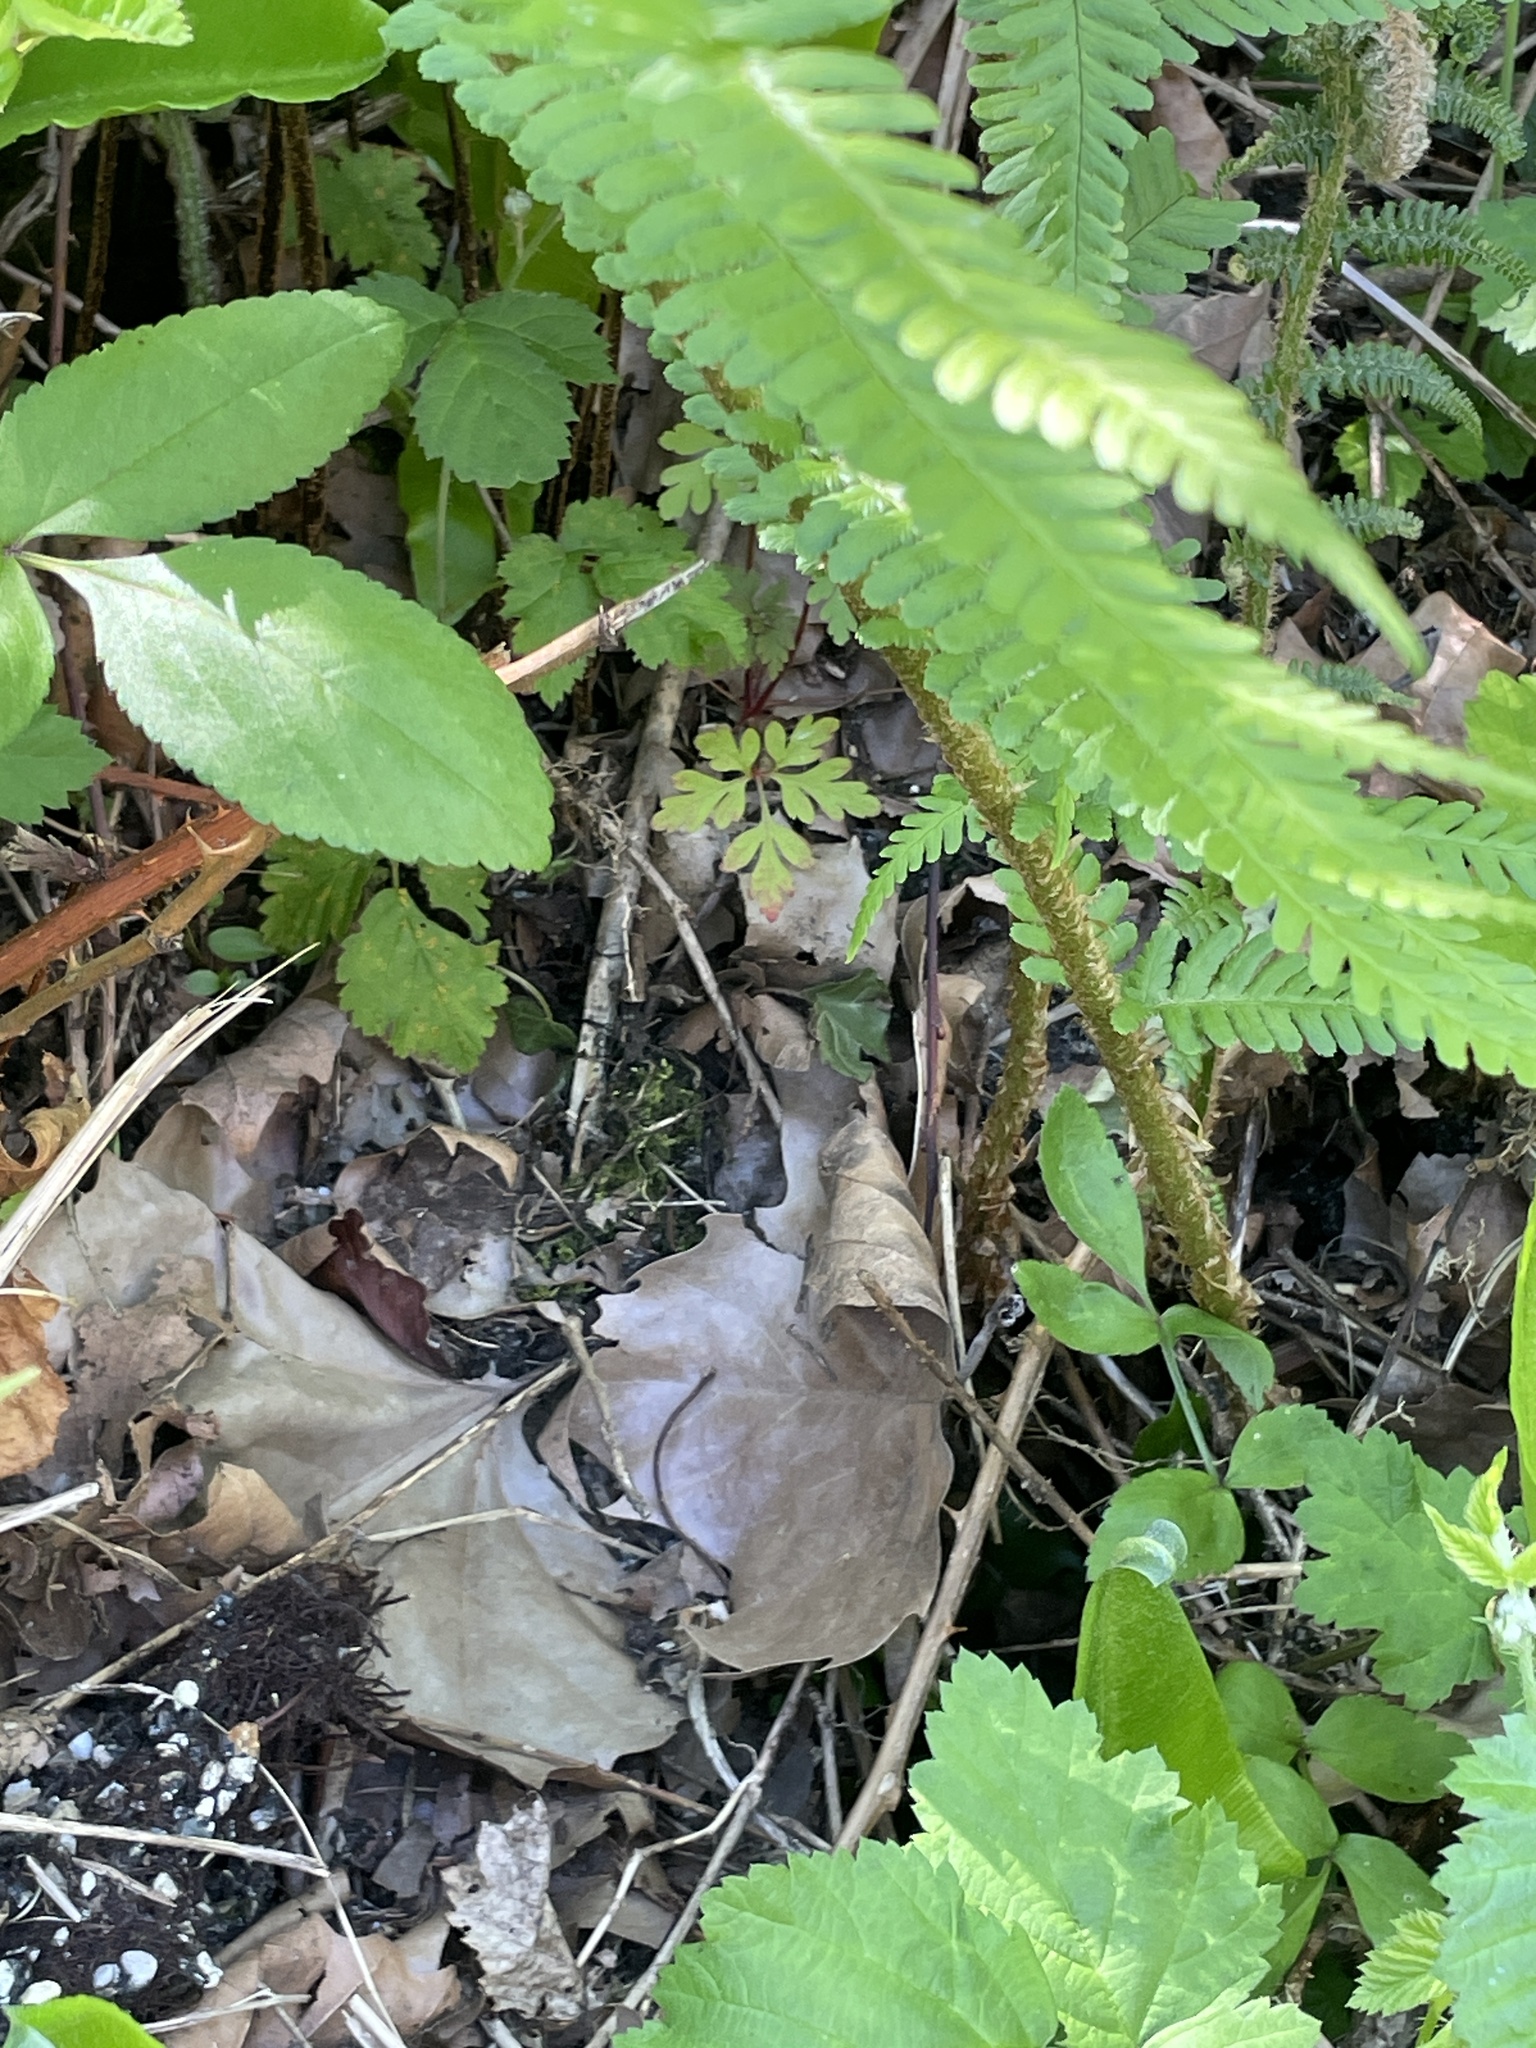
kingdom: Plantae
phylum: Tracheophyta
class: Polypodiopsida
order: Polypodiales
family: Dryopteridaceae
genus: Dryopteris
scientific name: Dryopteris filix-mas
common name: Male fern
